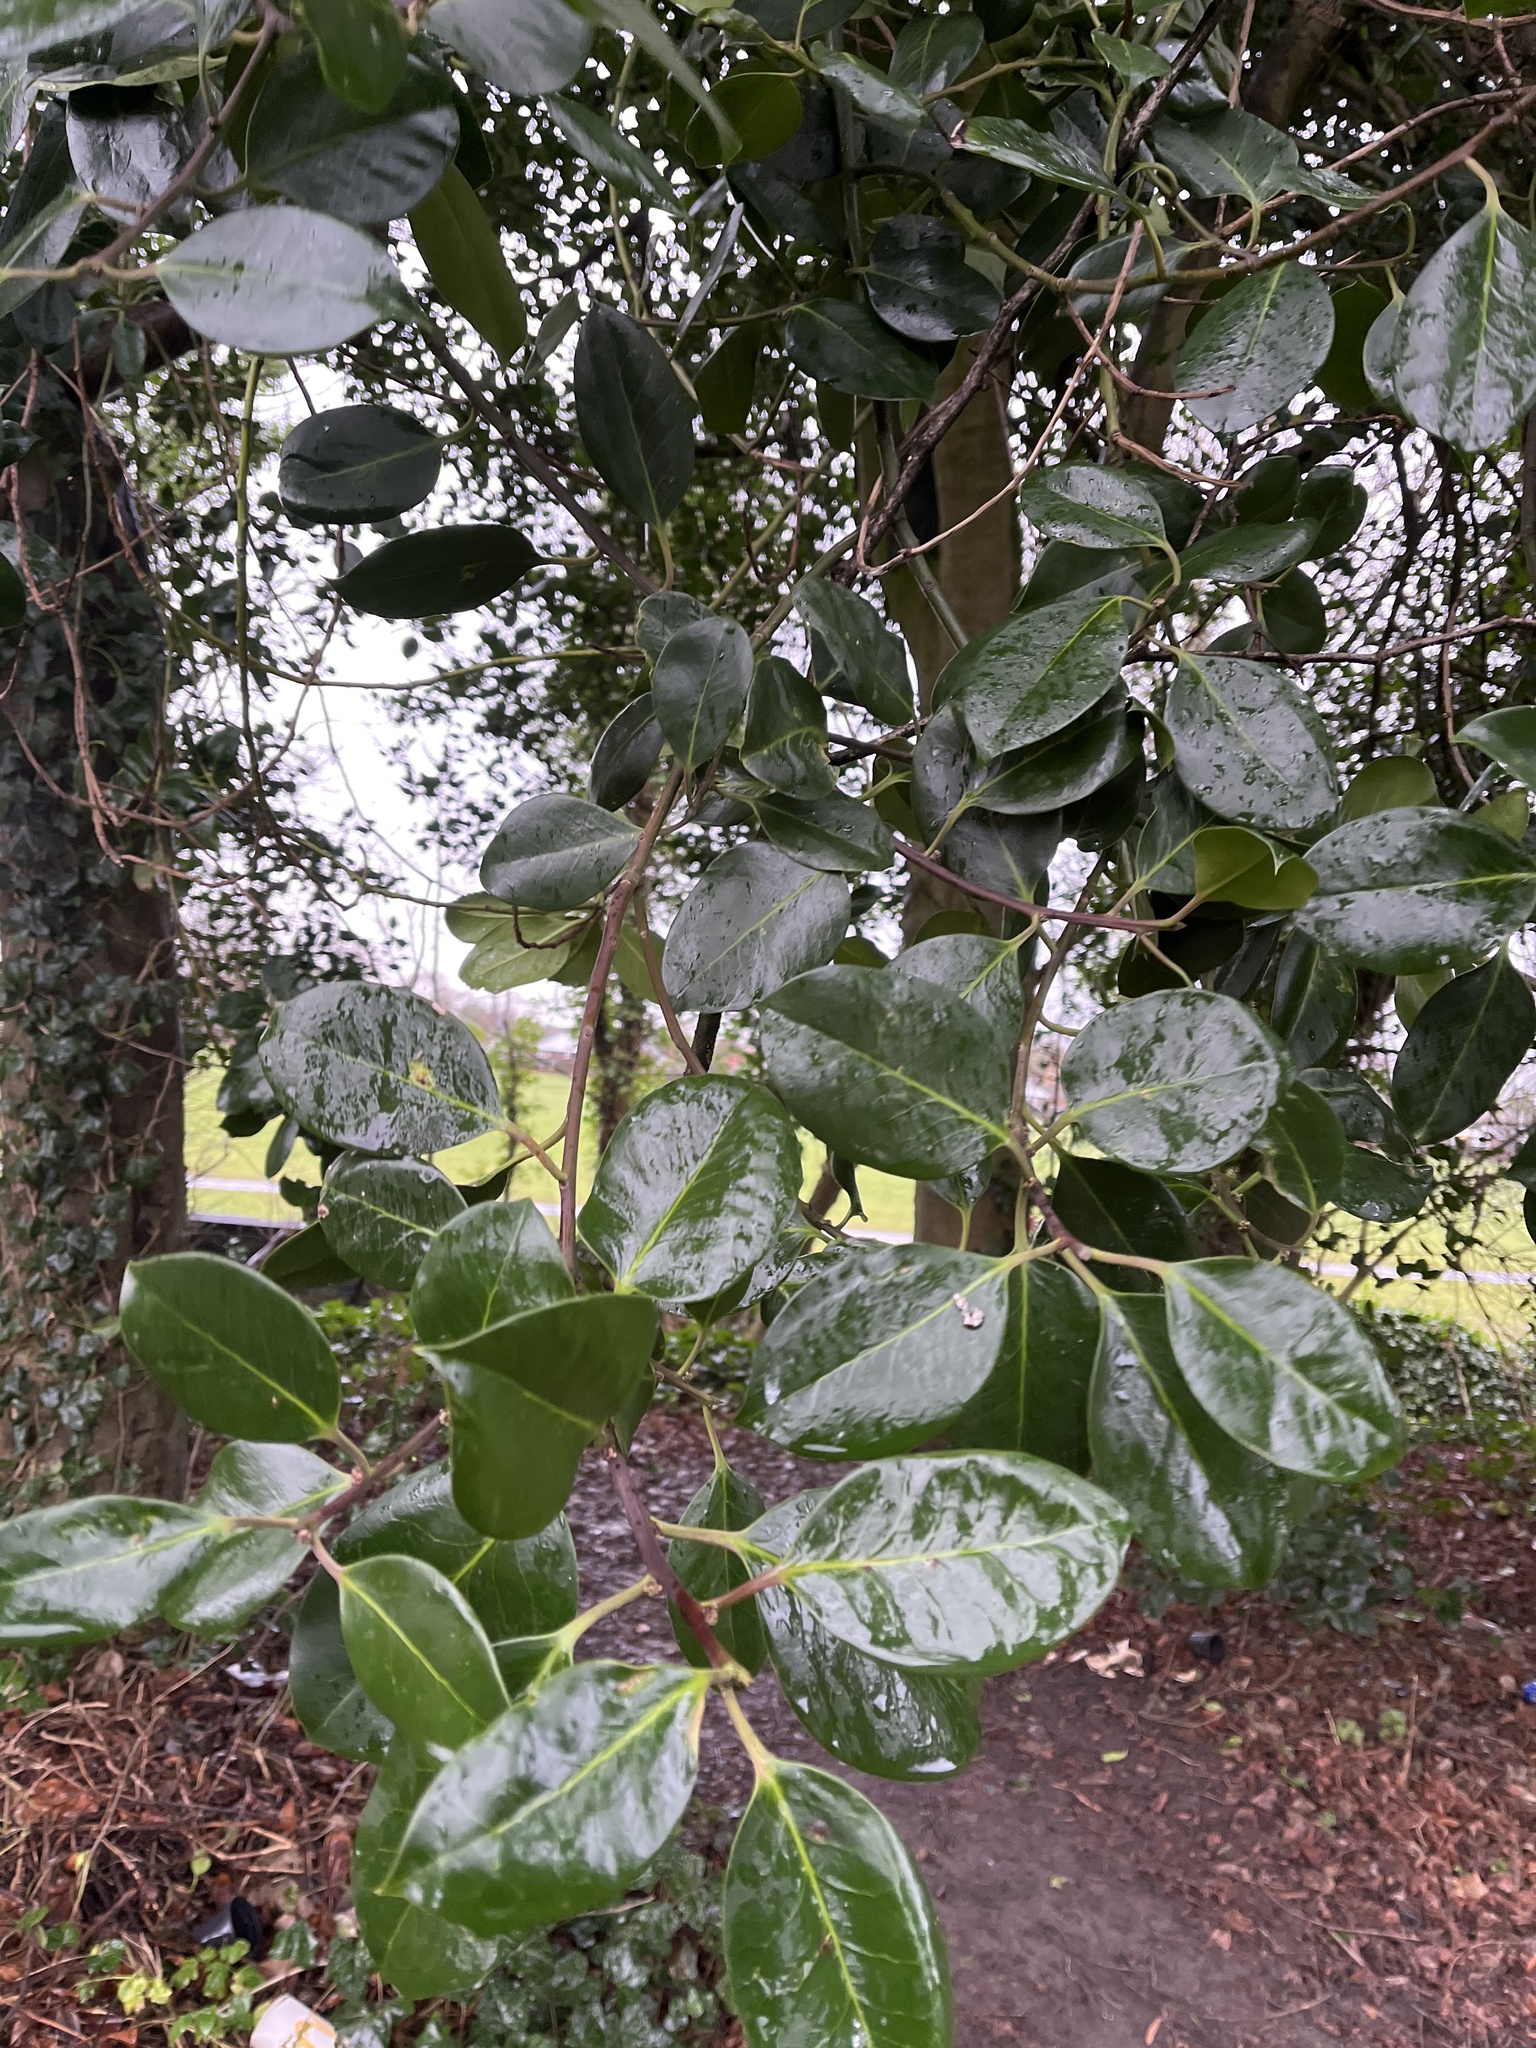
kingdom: Plantae
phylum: Tracheophyta
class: Magnoliopsida
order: Aquifoliales
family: Aquifoliaceae
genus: Ilex
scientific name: Ilex aquifolium
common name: English holly
